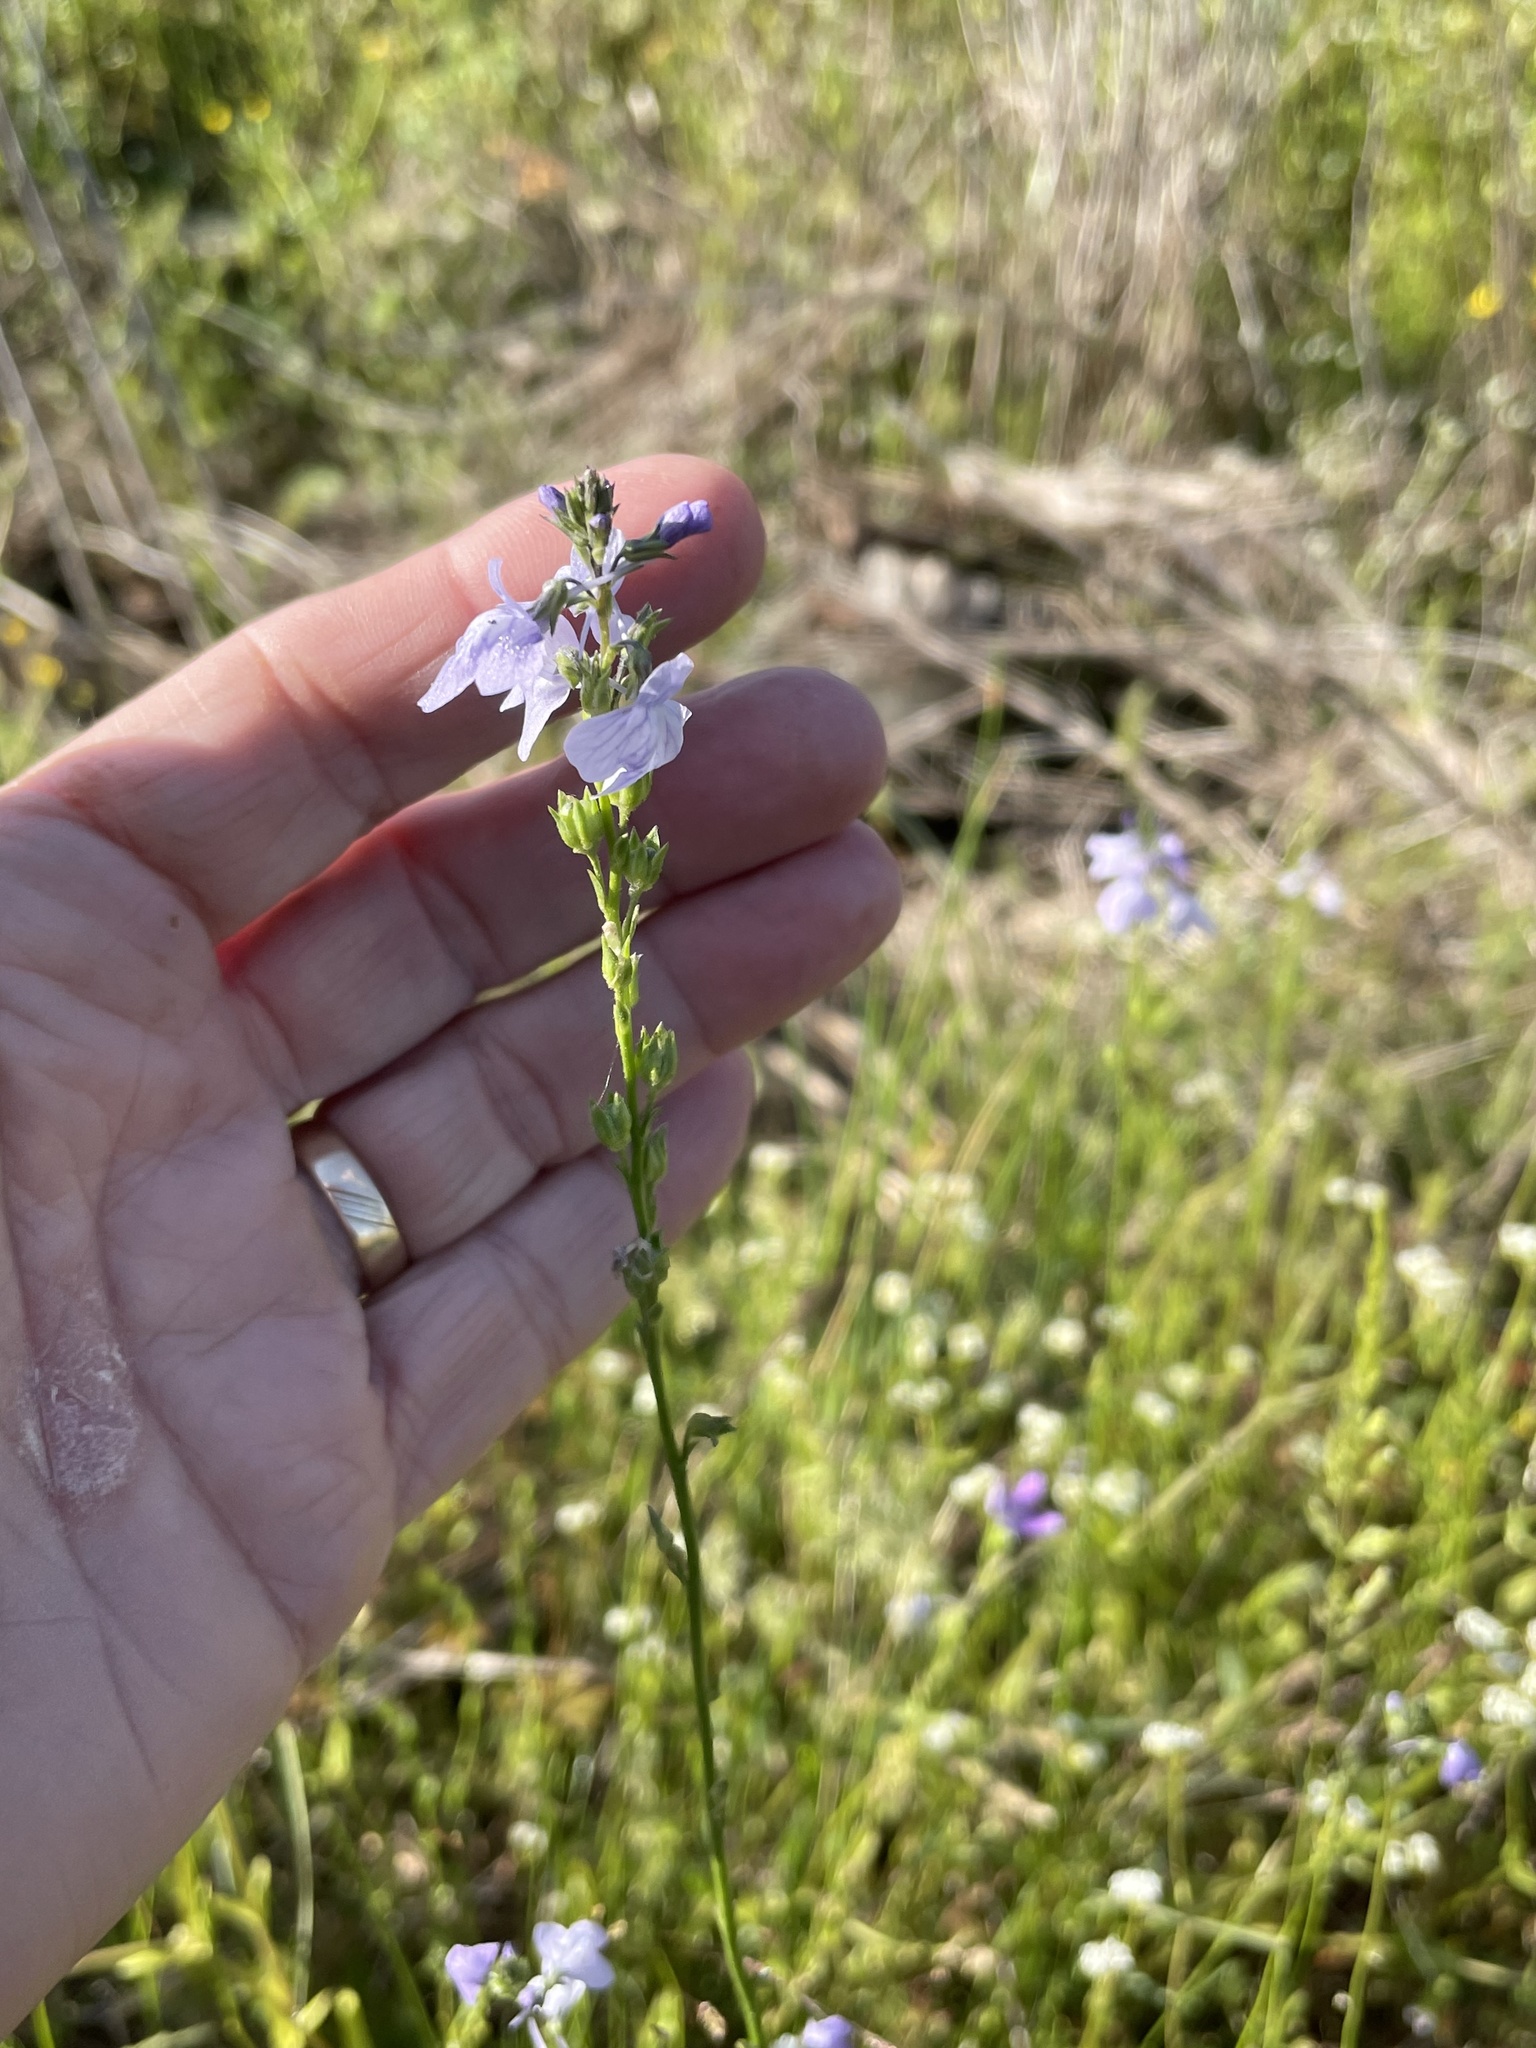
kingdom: Plantae
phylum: Tracheophyta
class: Magnoliopsida
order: Lamiales
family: Plantaginaceae
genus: Nuttallanthus
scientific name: Nuttallanthus texanus
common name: Texas toadflax
